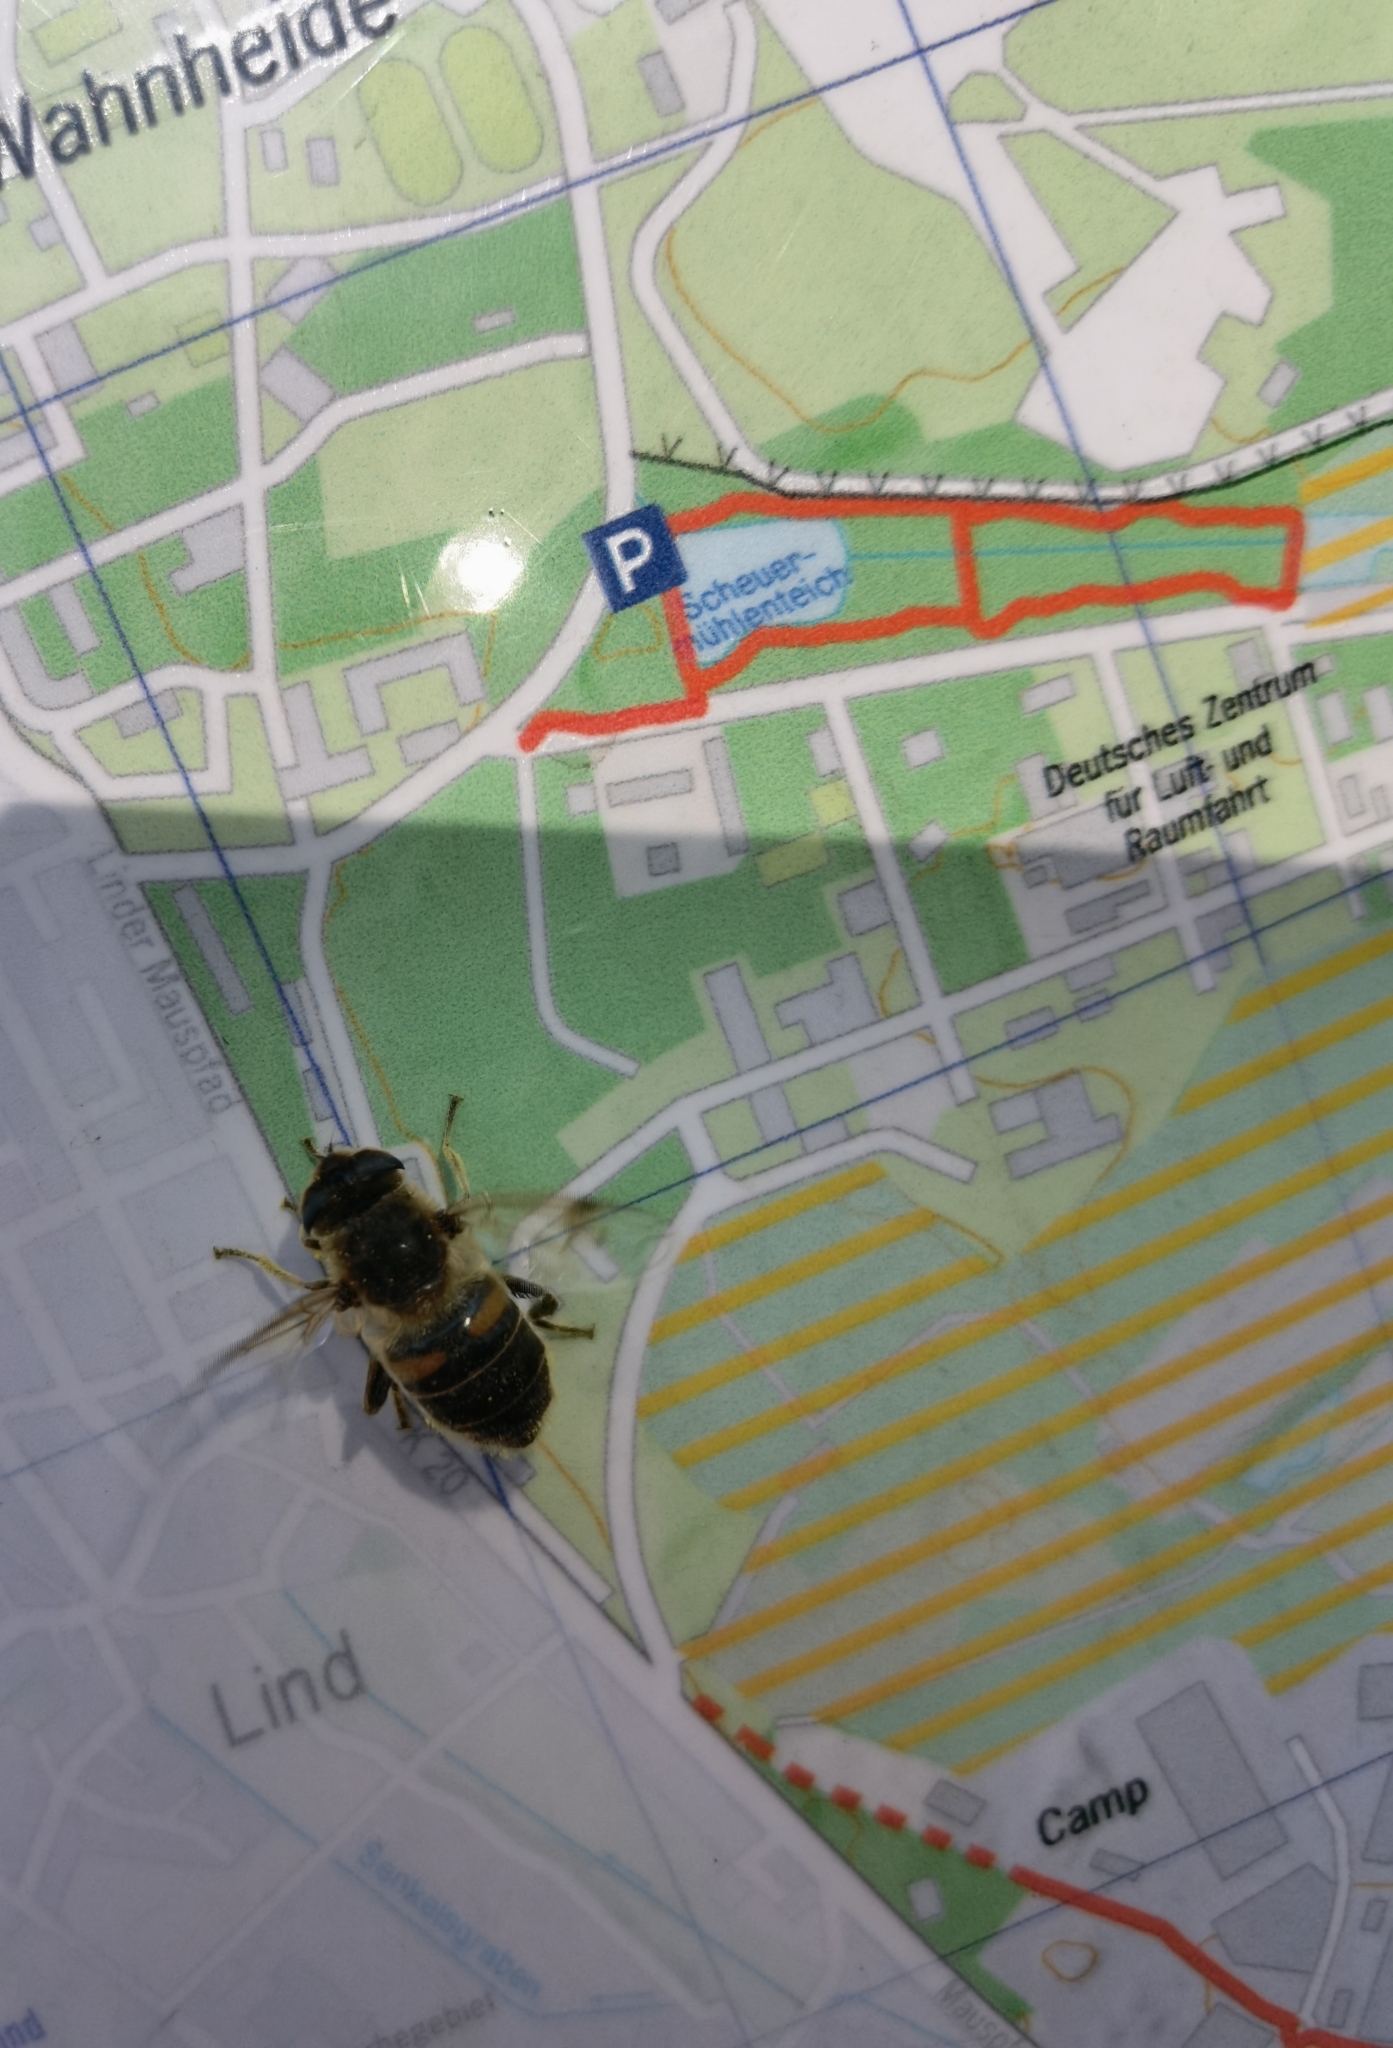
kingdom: Animalia
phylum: Arthropoda
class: Insecta
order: Diptera
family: Syrphidae
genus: Eristalis
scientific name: Eristalis tenax
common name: Drone fly
